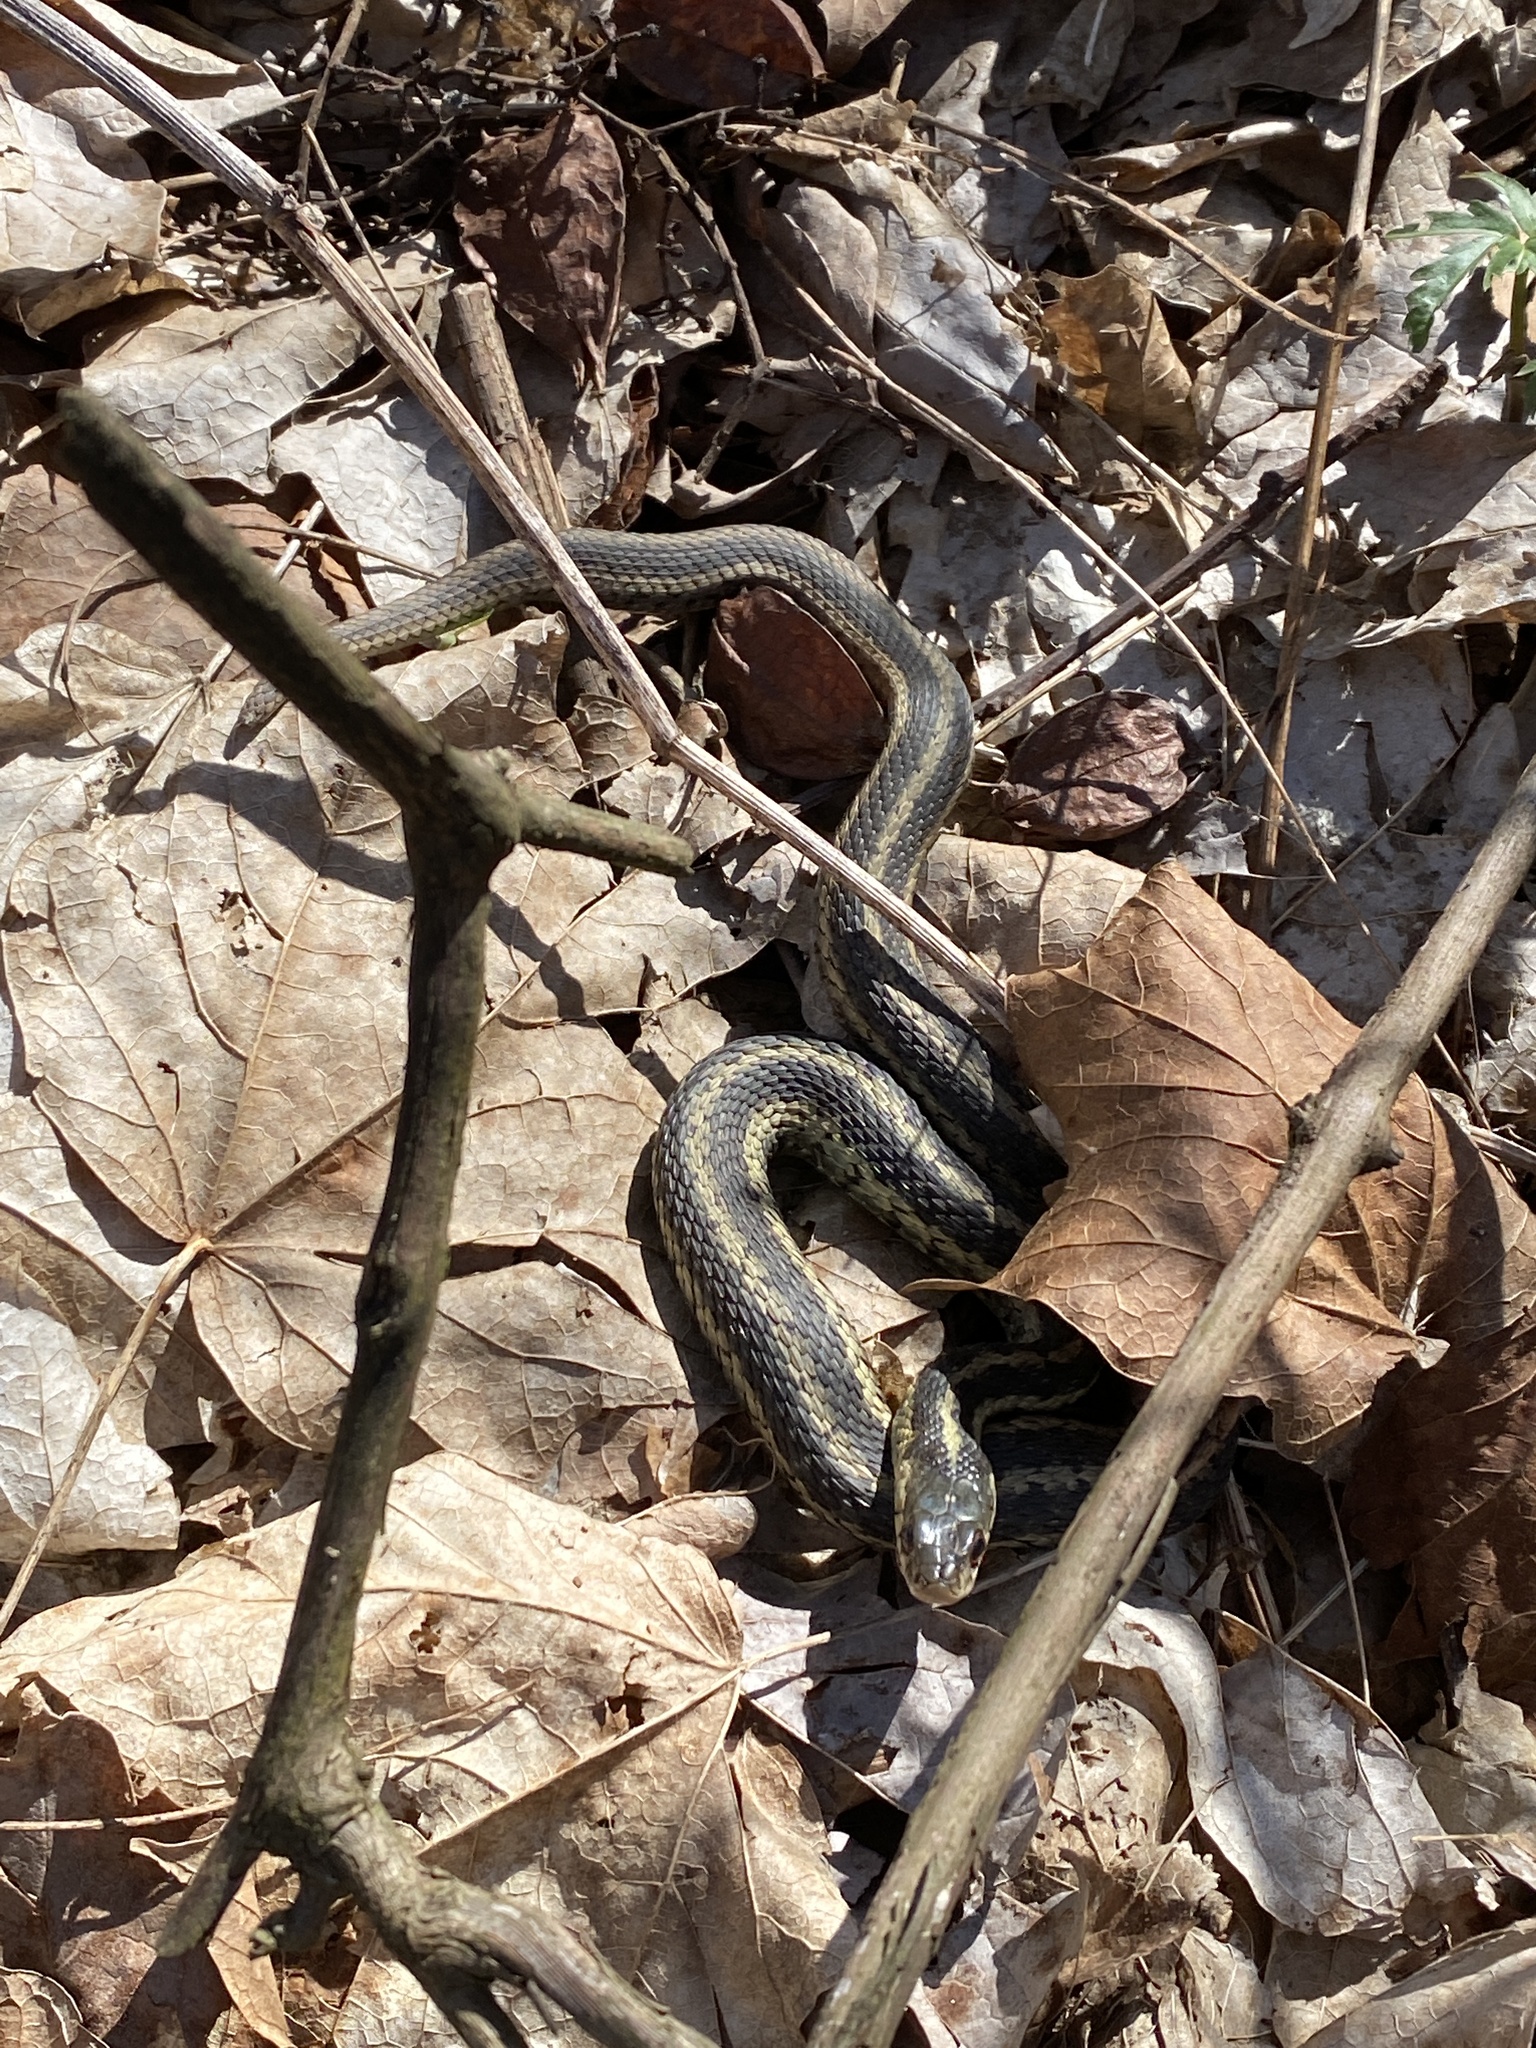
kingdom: Animalia
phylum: Chordata
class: Squamata
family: Colubridae
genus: Thamnophis
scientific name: Thamnophis sirtalis
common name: Common garter snake
